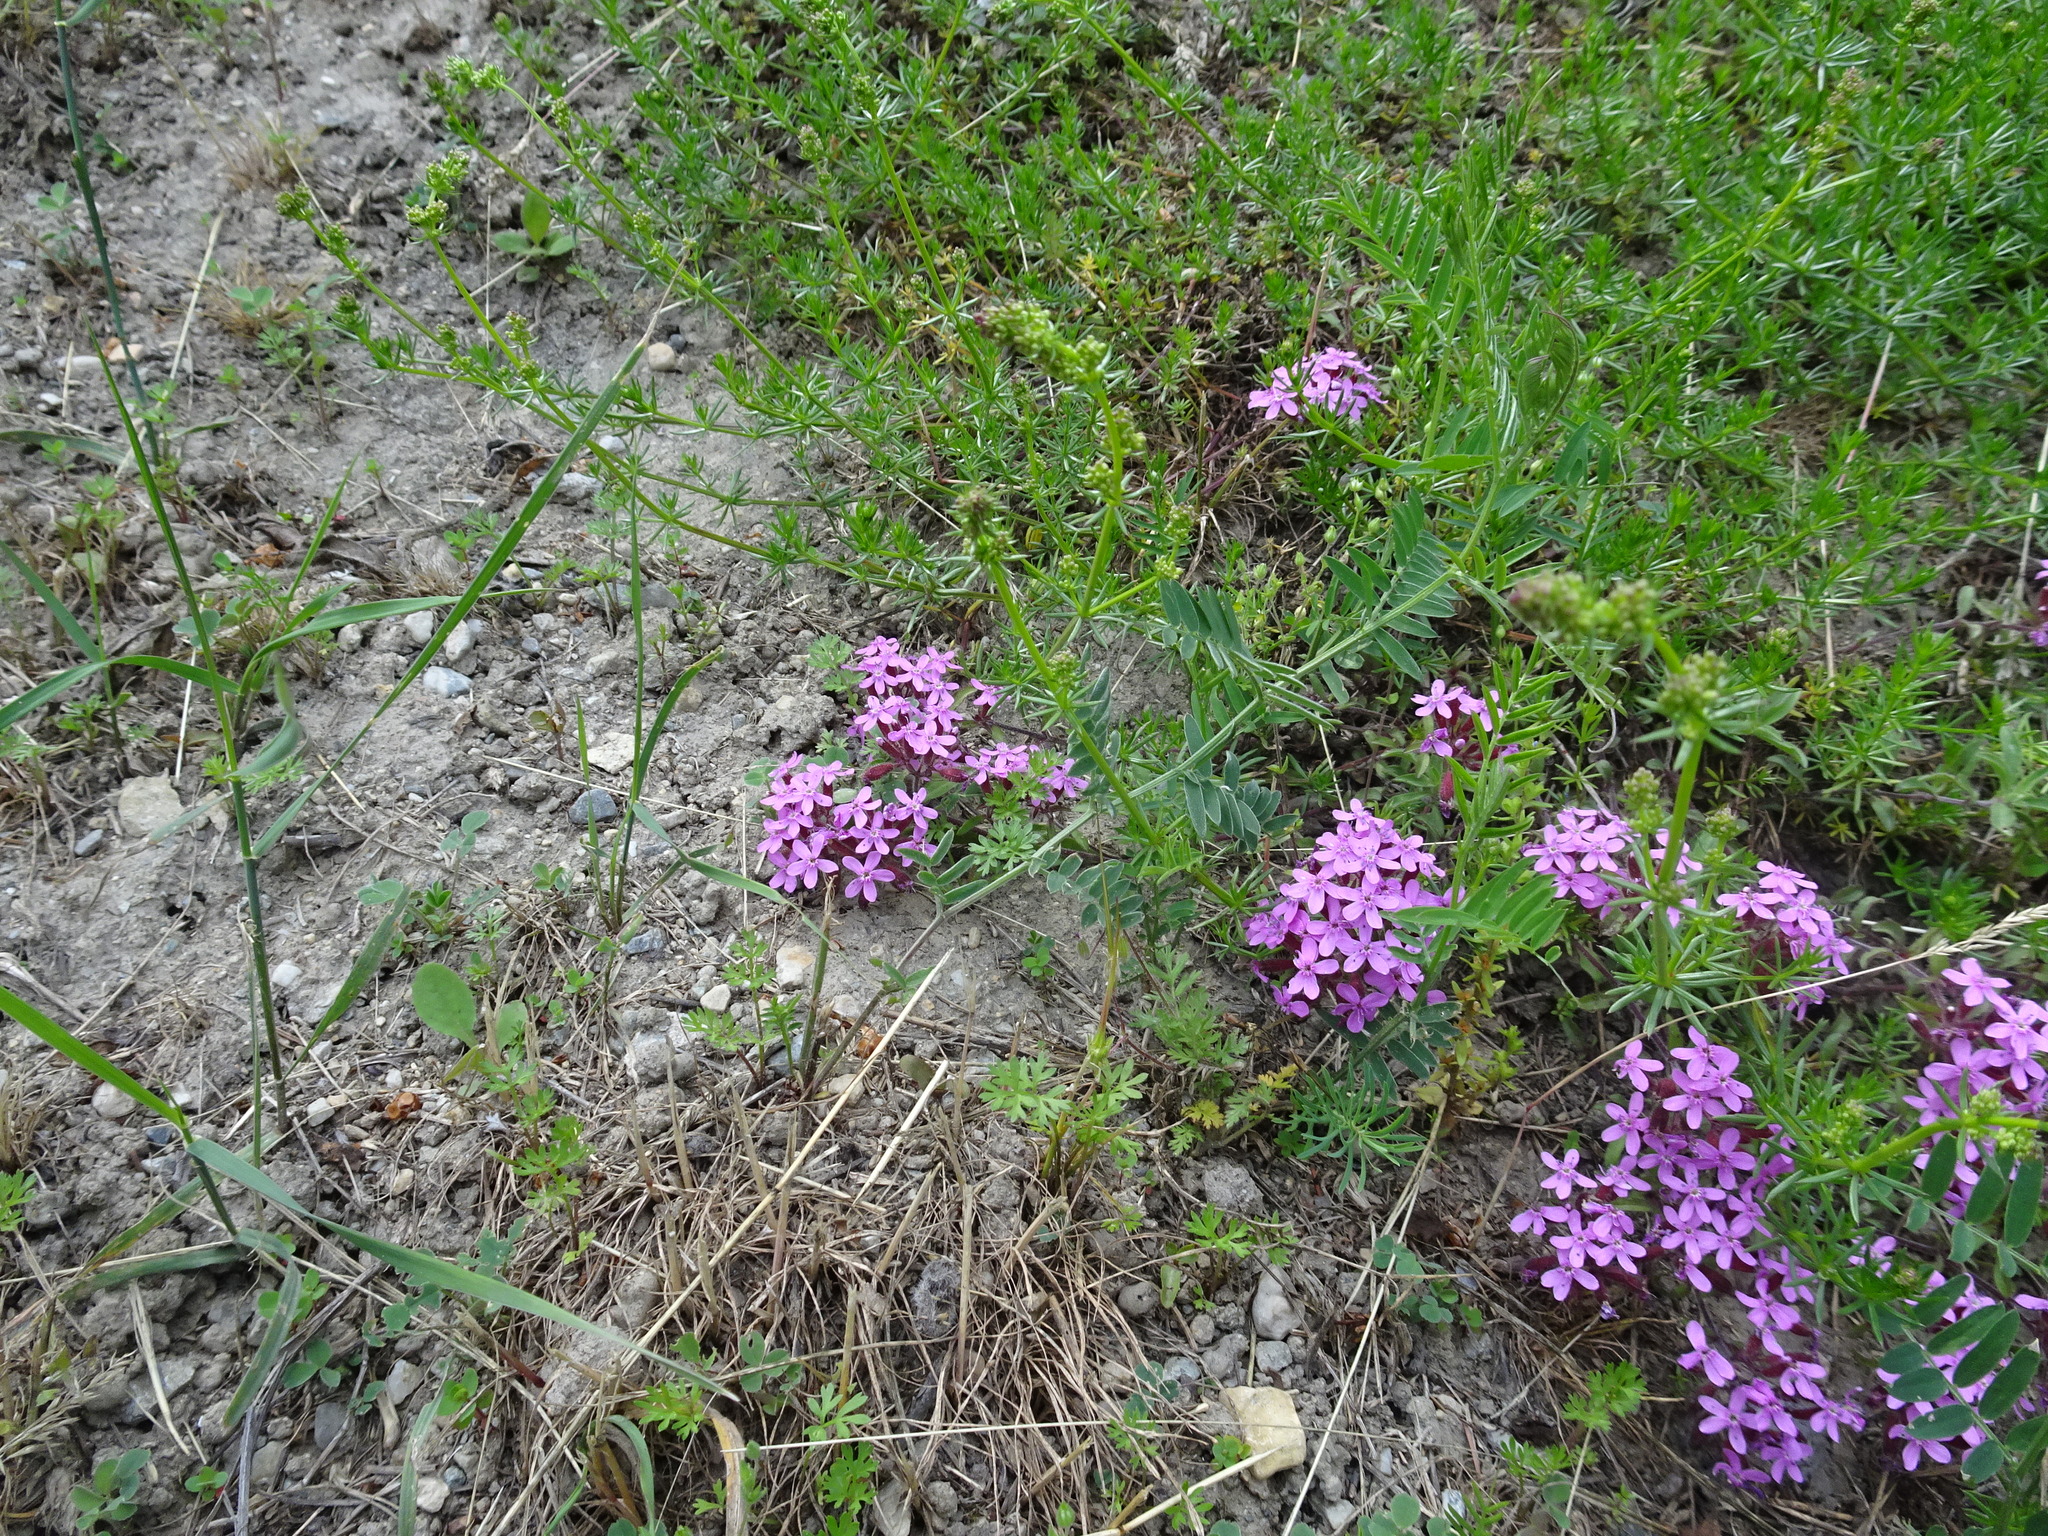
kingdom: Plantae
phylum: Tracheophyta
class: Magnoliopsida
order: Caryophyllales
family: Caryophyllaceae
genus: Saponaria
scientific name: Saponaria ocymoides
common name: Rock soapwort
